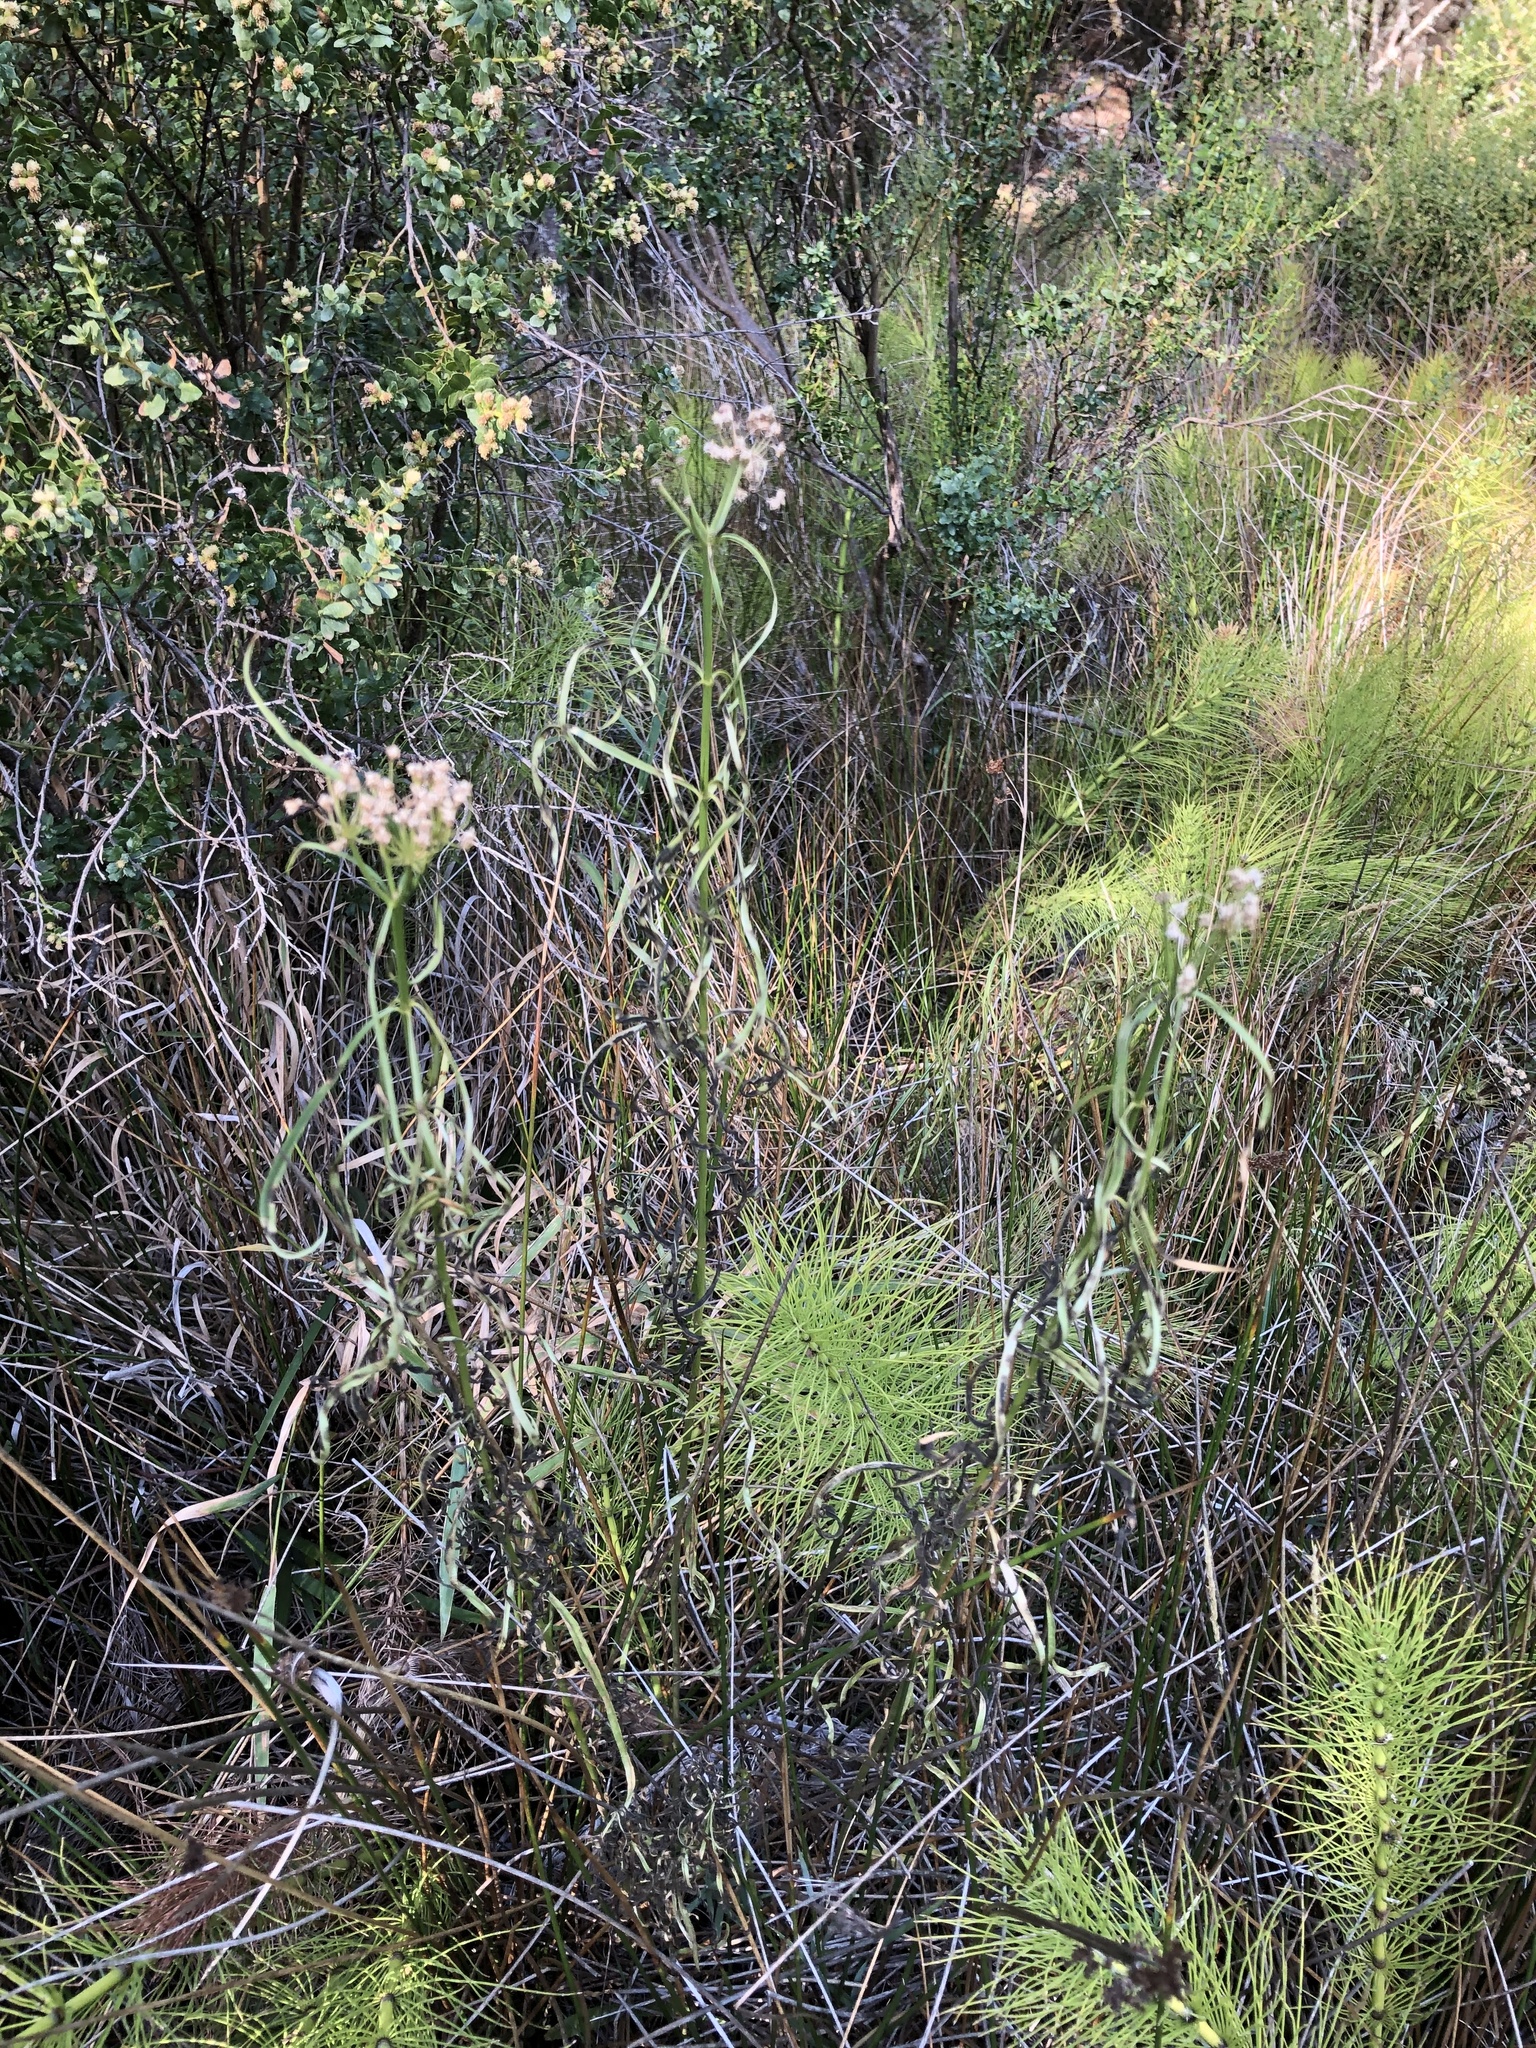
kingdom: Plantae
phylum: Tracheophyta
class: Magnoliopsida
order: Gentianales
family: Apocynaceae
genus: Asclepias
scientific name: Asclepias fascicularis
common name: Mexican milkweed
